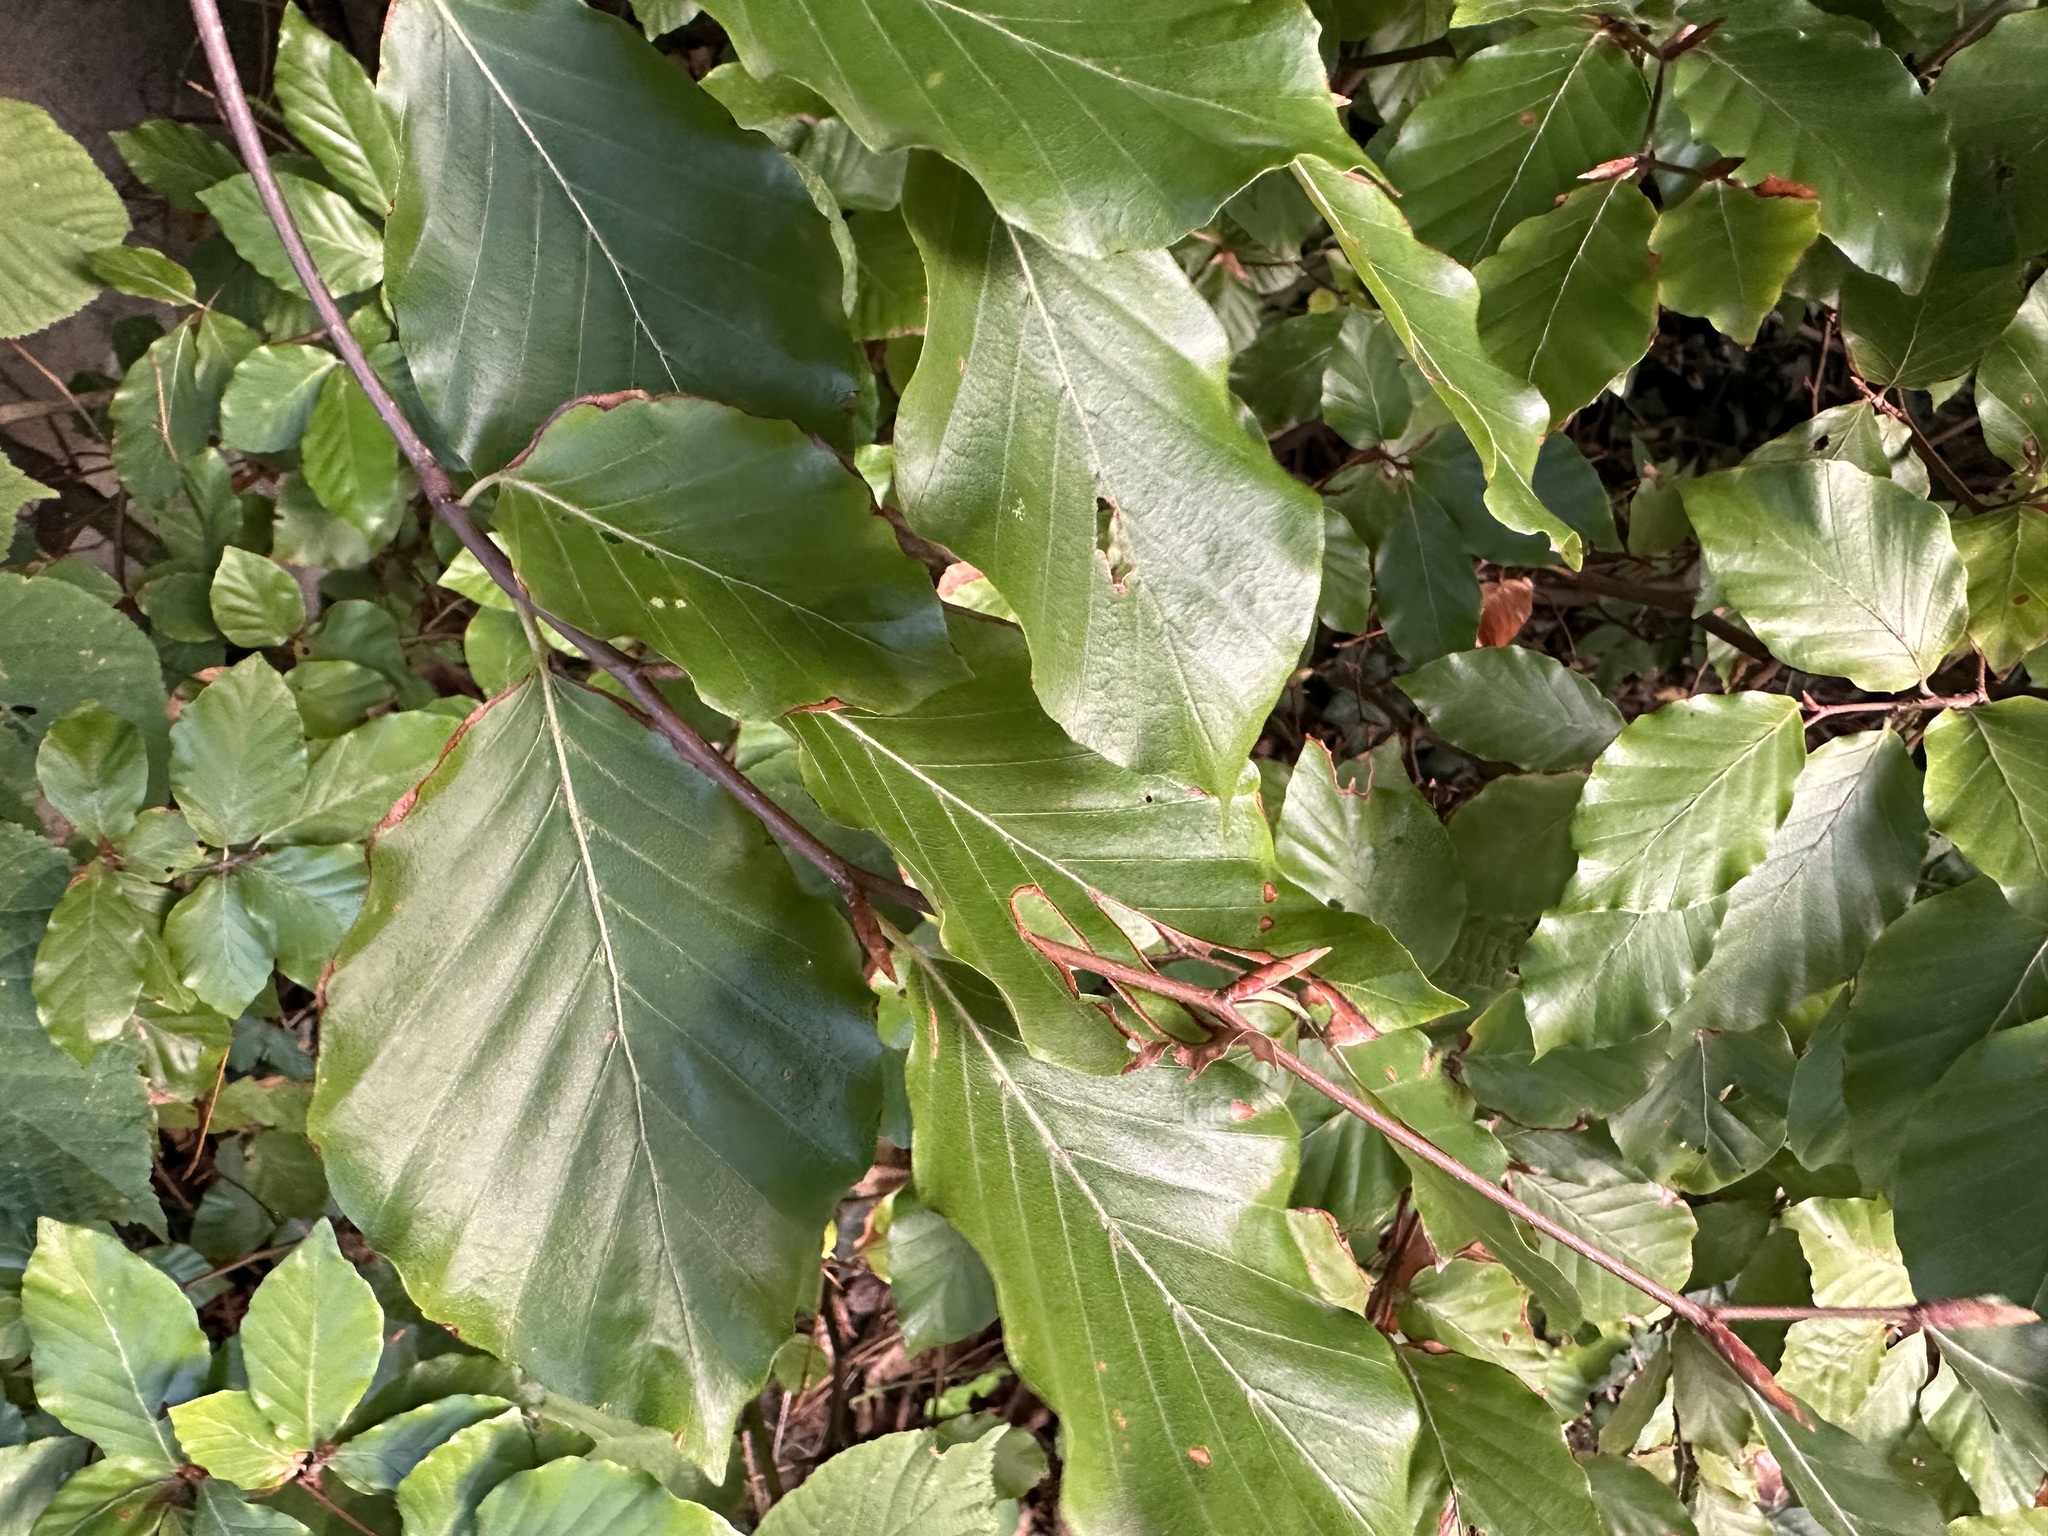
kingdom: Plantae
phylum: Tracheophyta
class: Magnoliopsida
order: Fagales
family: Fagaceae
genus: Fagus
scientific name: Fagus sylvatica
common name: Beech
